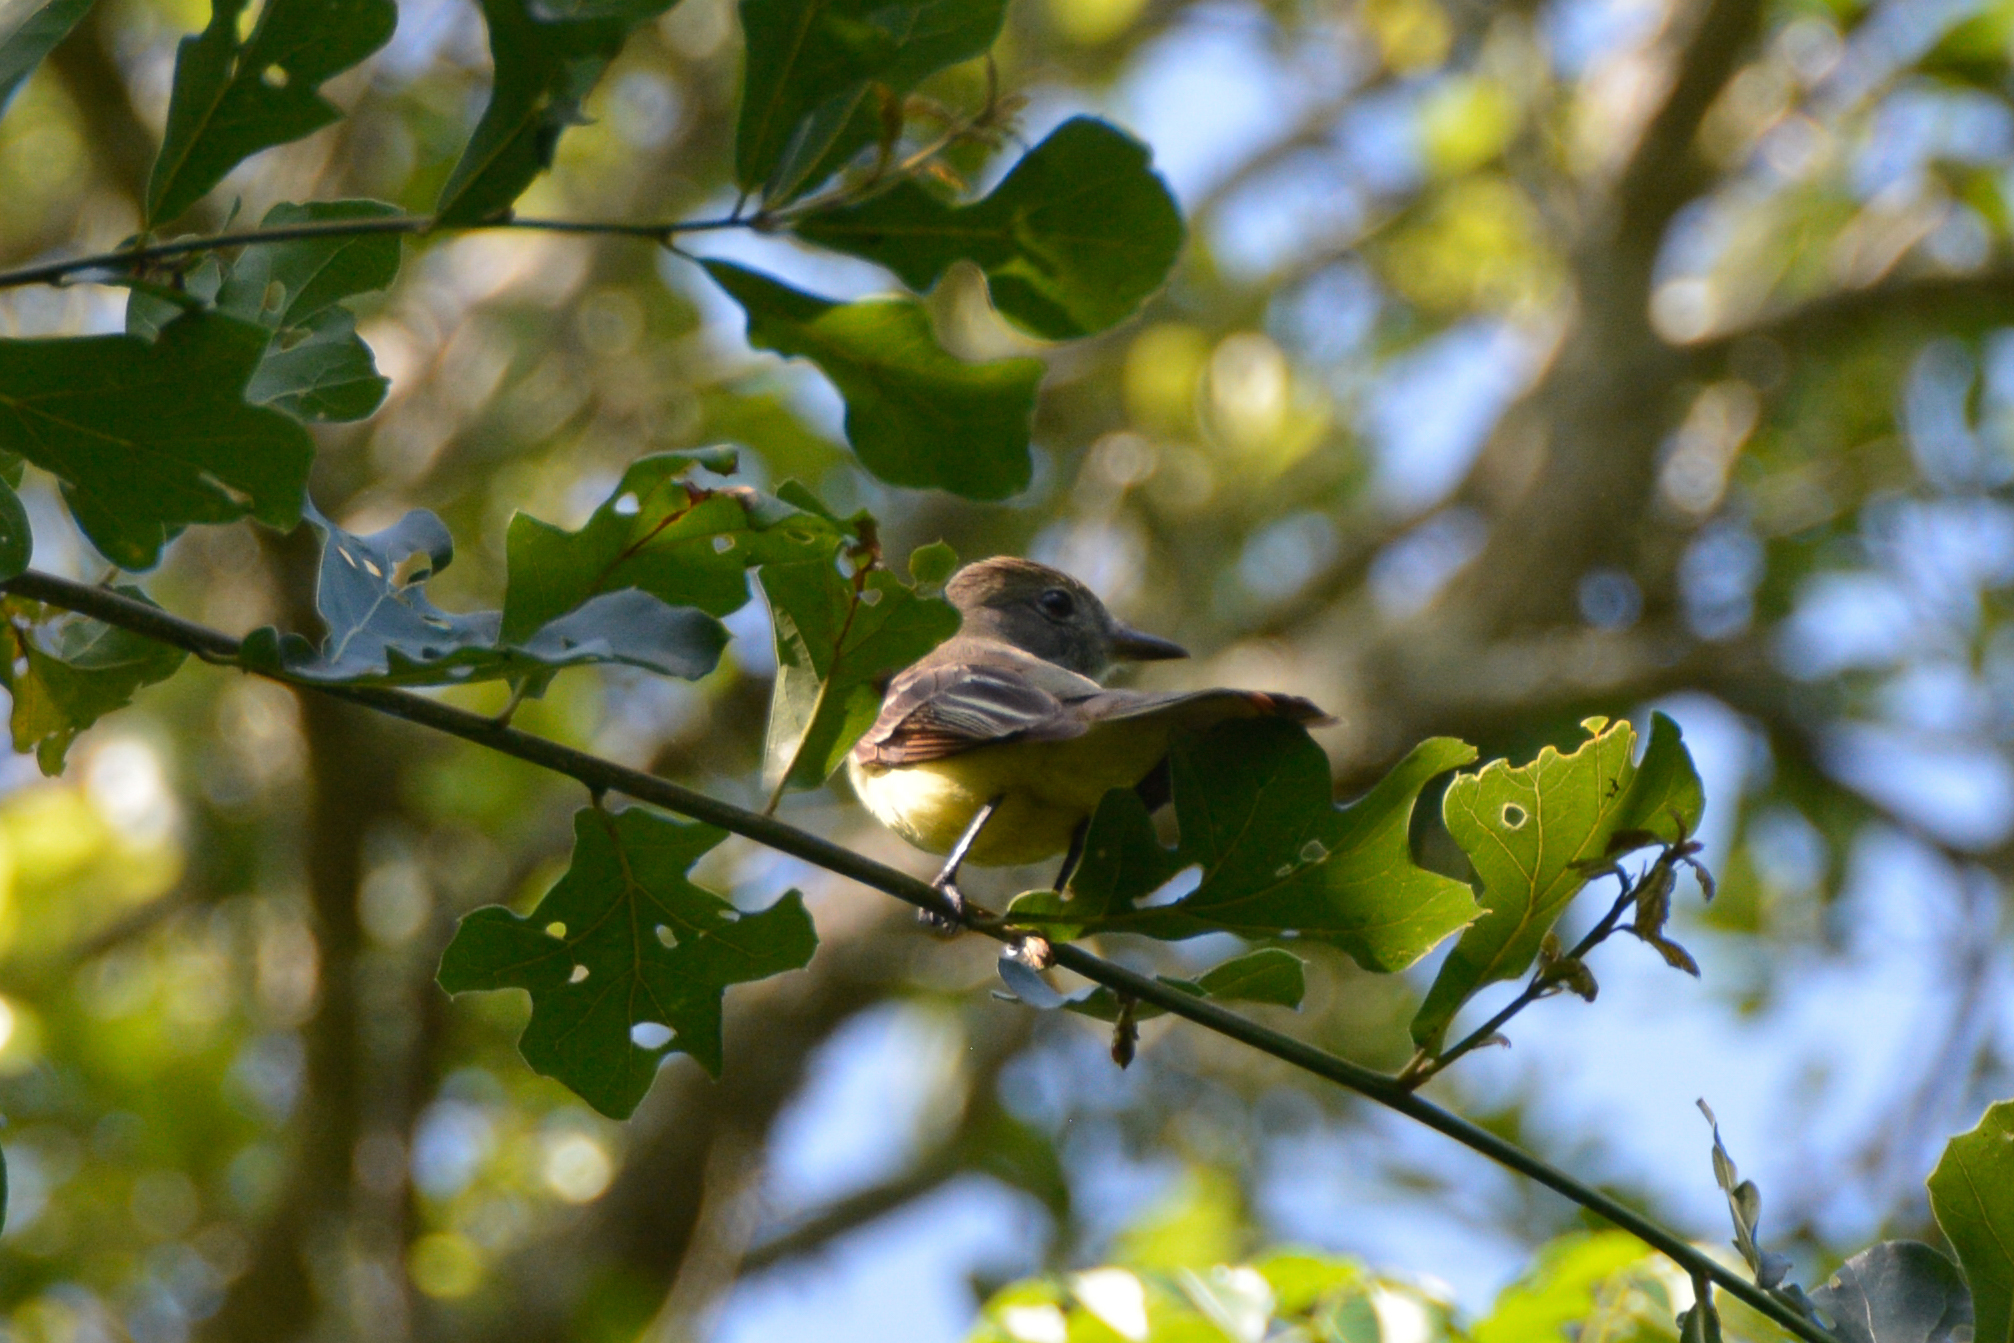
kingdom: Animalia
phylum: Chordata
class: Aves
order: Passeriformes
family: Tyrannidae
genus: Myiarchus
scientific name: Myiarchus crinitus
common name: Great crested flycatcher
